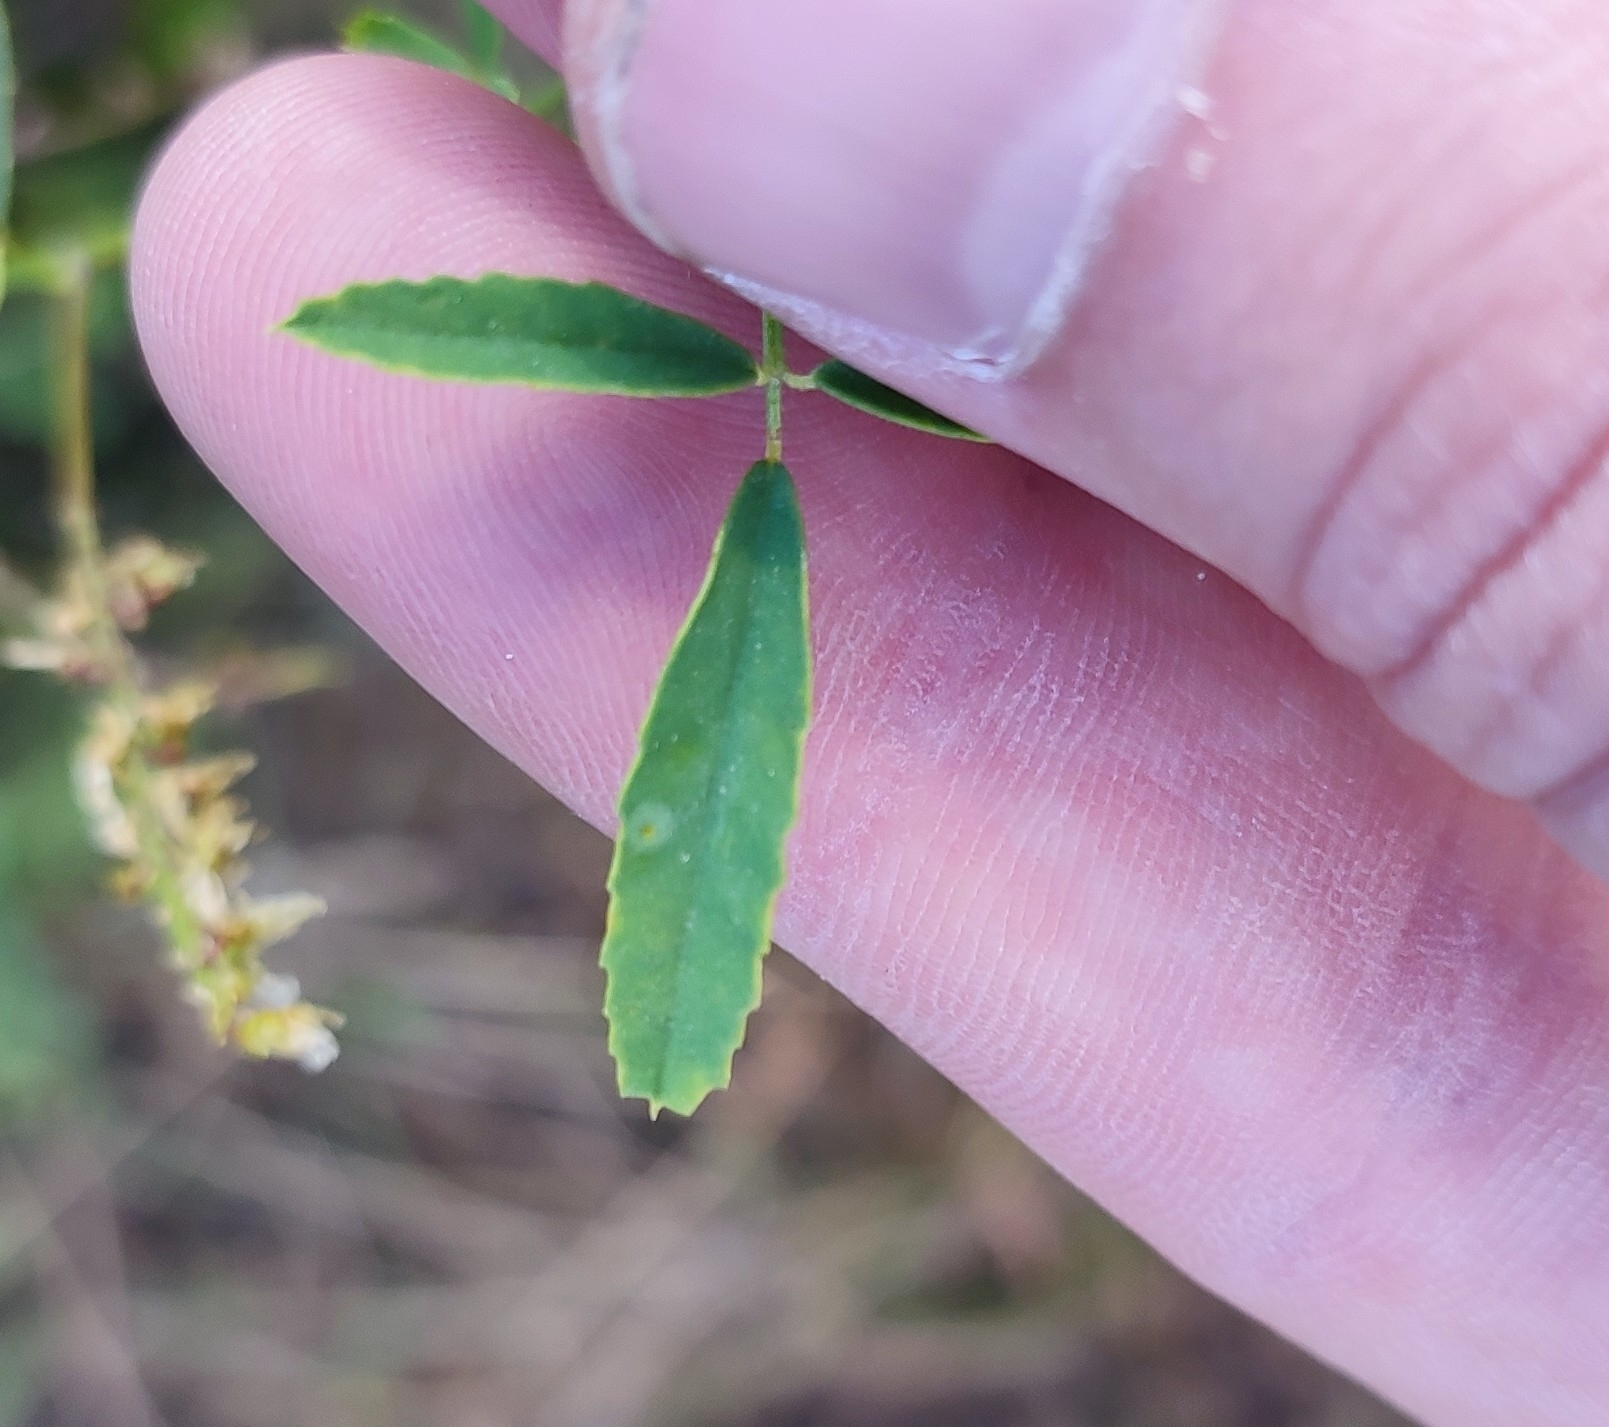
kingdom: Plantae
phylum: Tracheophyta
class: Magnoliopsida
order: Fabales
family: Fabaceae
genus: Melilotus
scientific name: Melilotus officinalis
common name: Sweetclover
